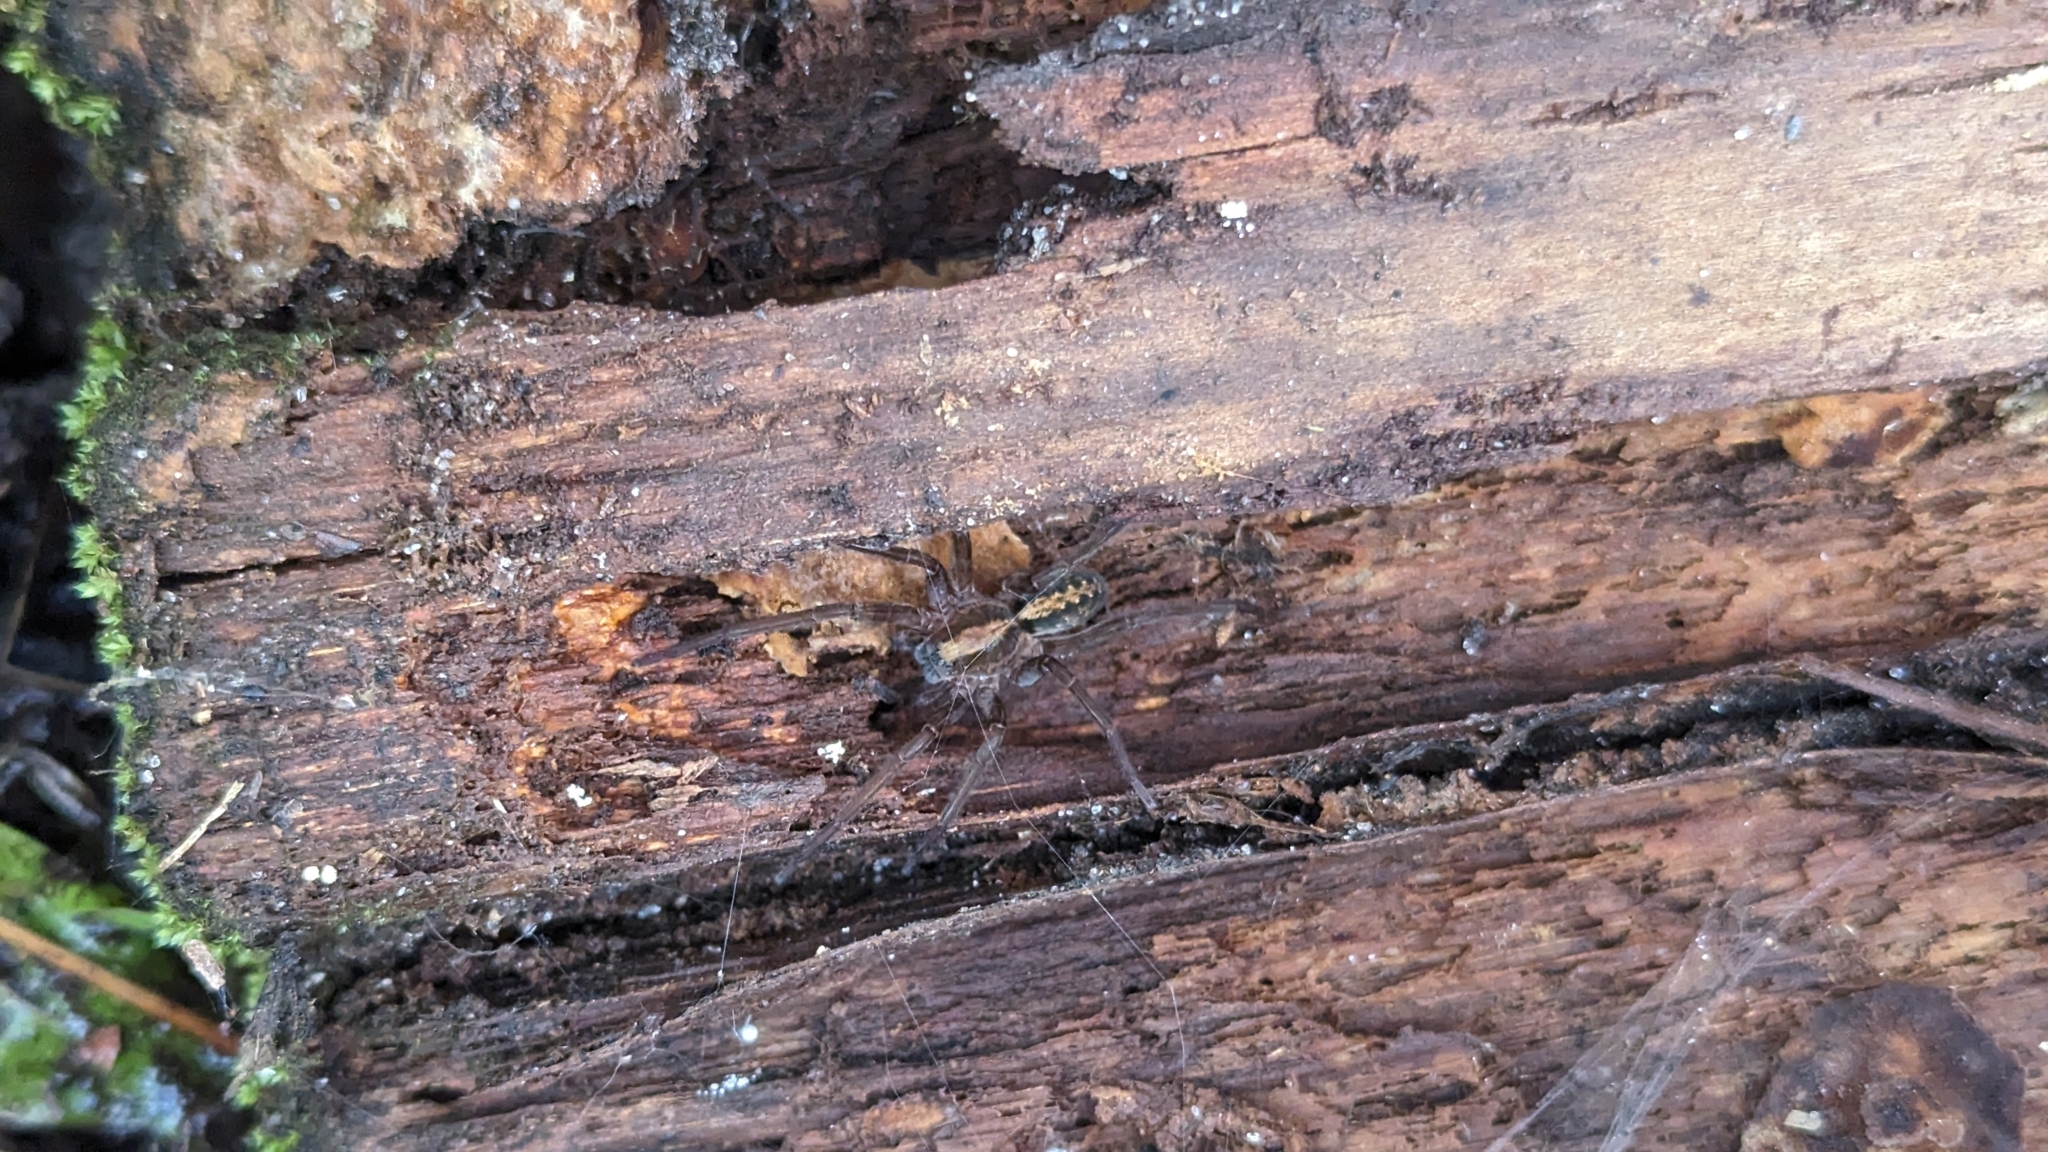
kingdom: Animalia
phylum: Arthropoda
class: Arachnida
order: Araneae
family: Ctenidae
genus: Ctenus
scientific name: Ctenus captiosus
